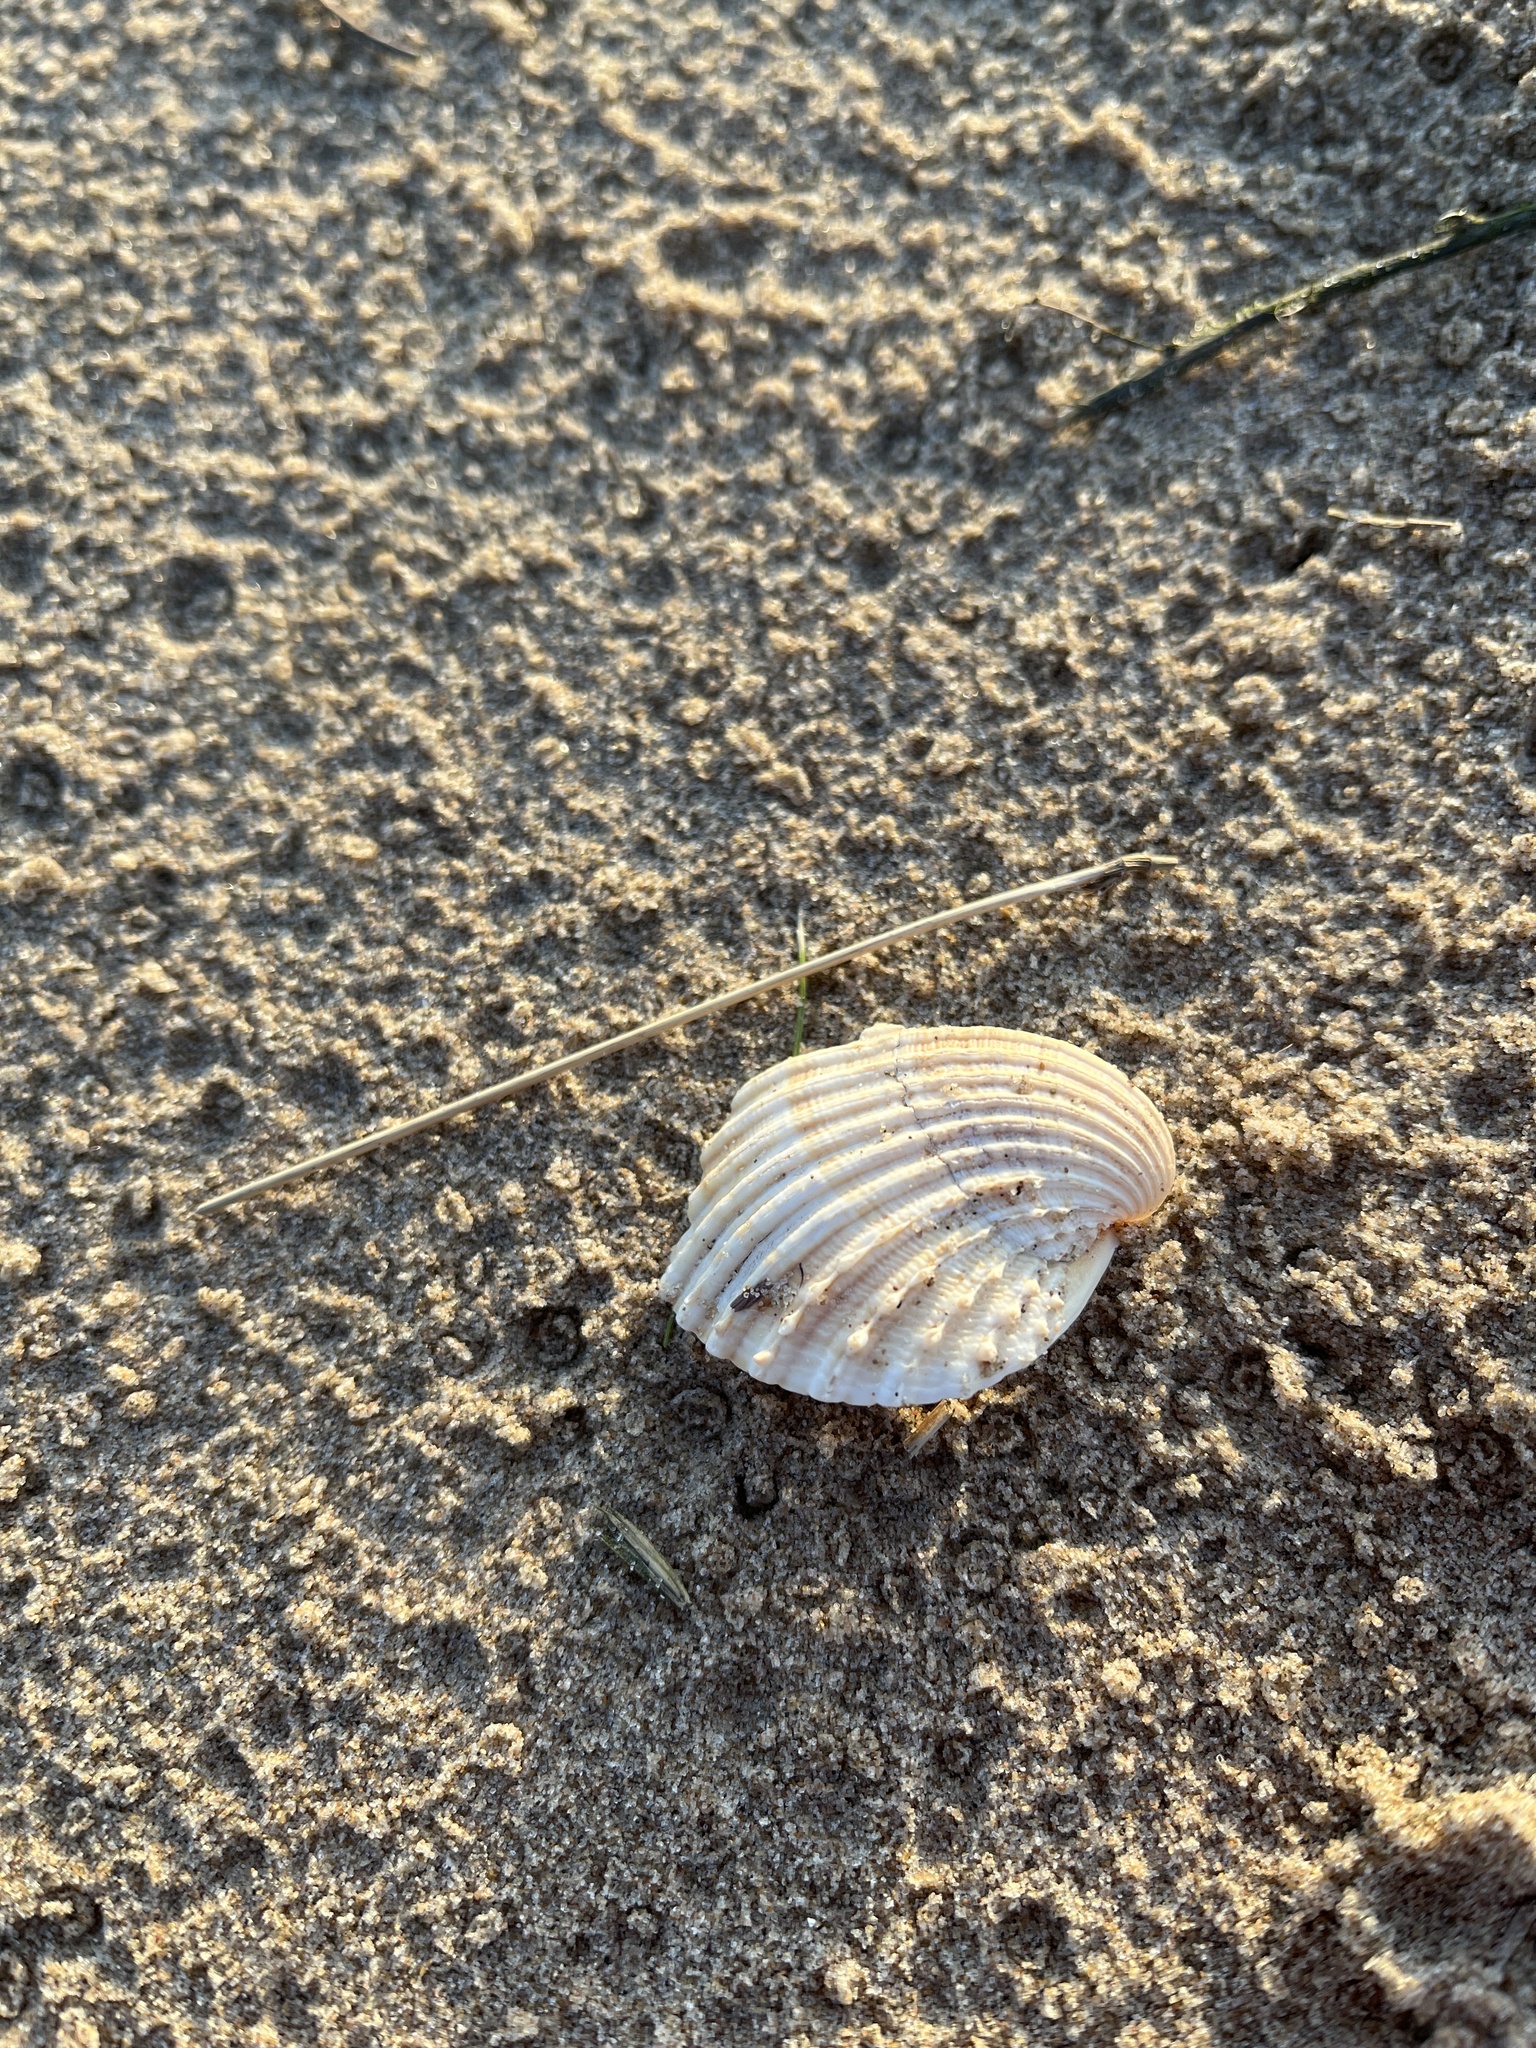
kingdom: Animalia
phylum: Mollusca
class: Bivalvia
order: Cardiida
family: Cardiidae
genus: Acanthocardia
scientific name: Acanthocardia echinata
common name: Prickly cockle
